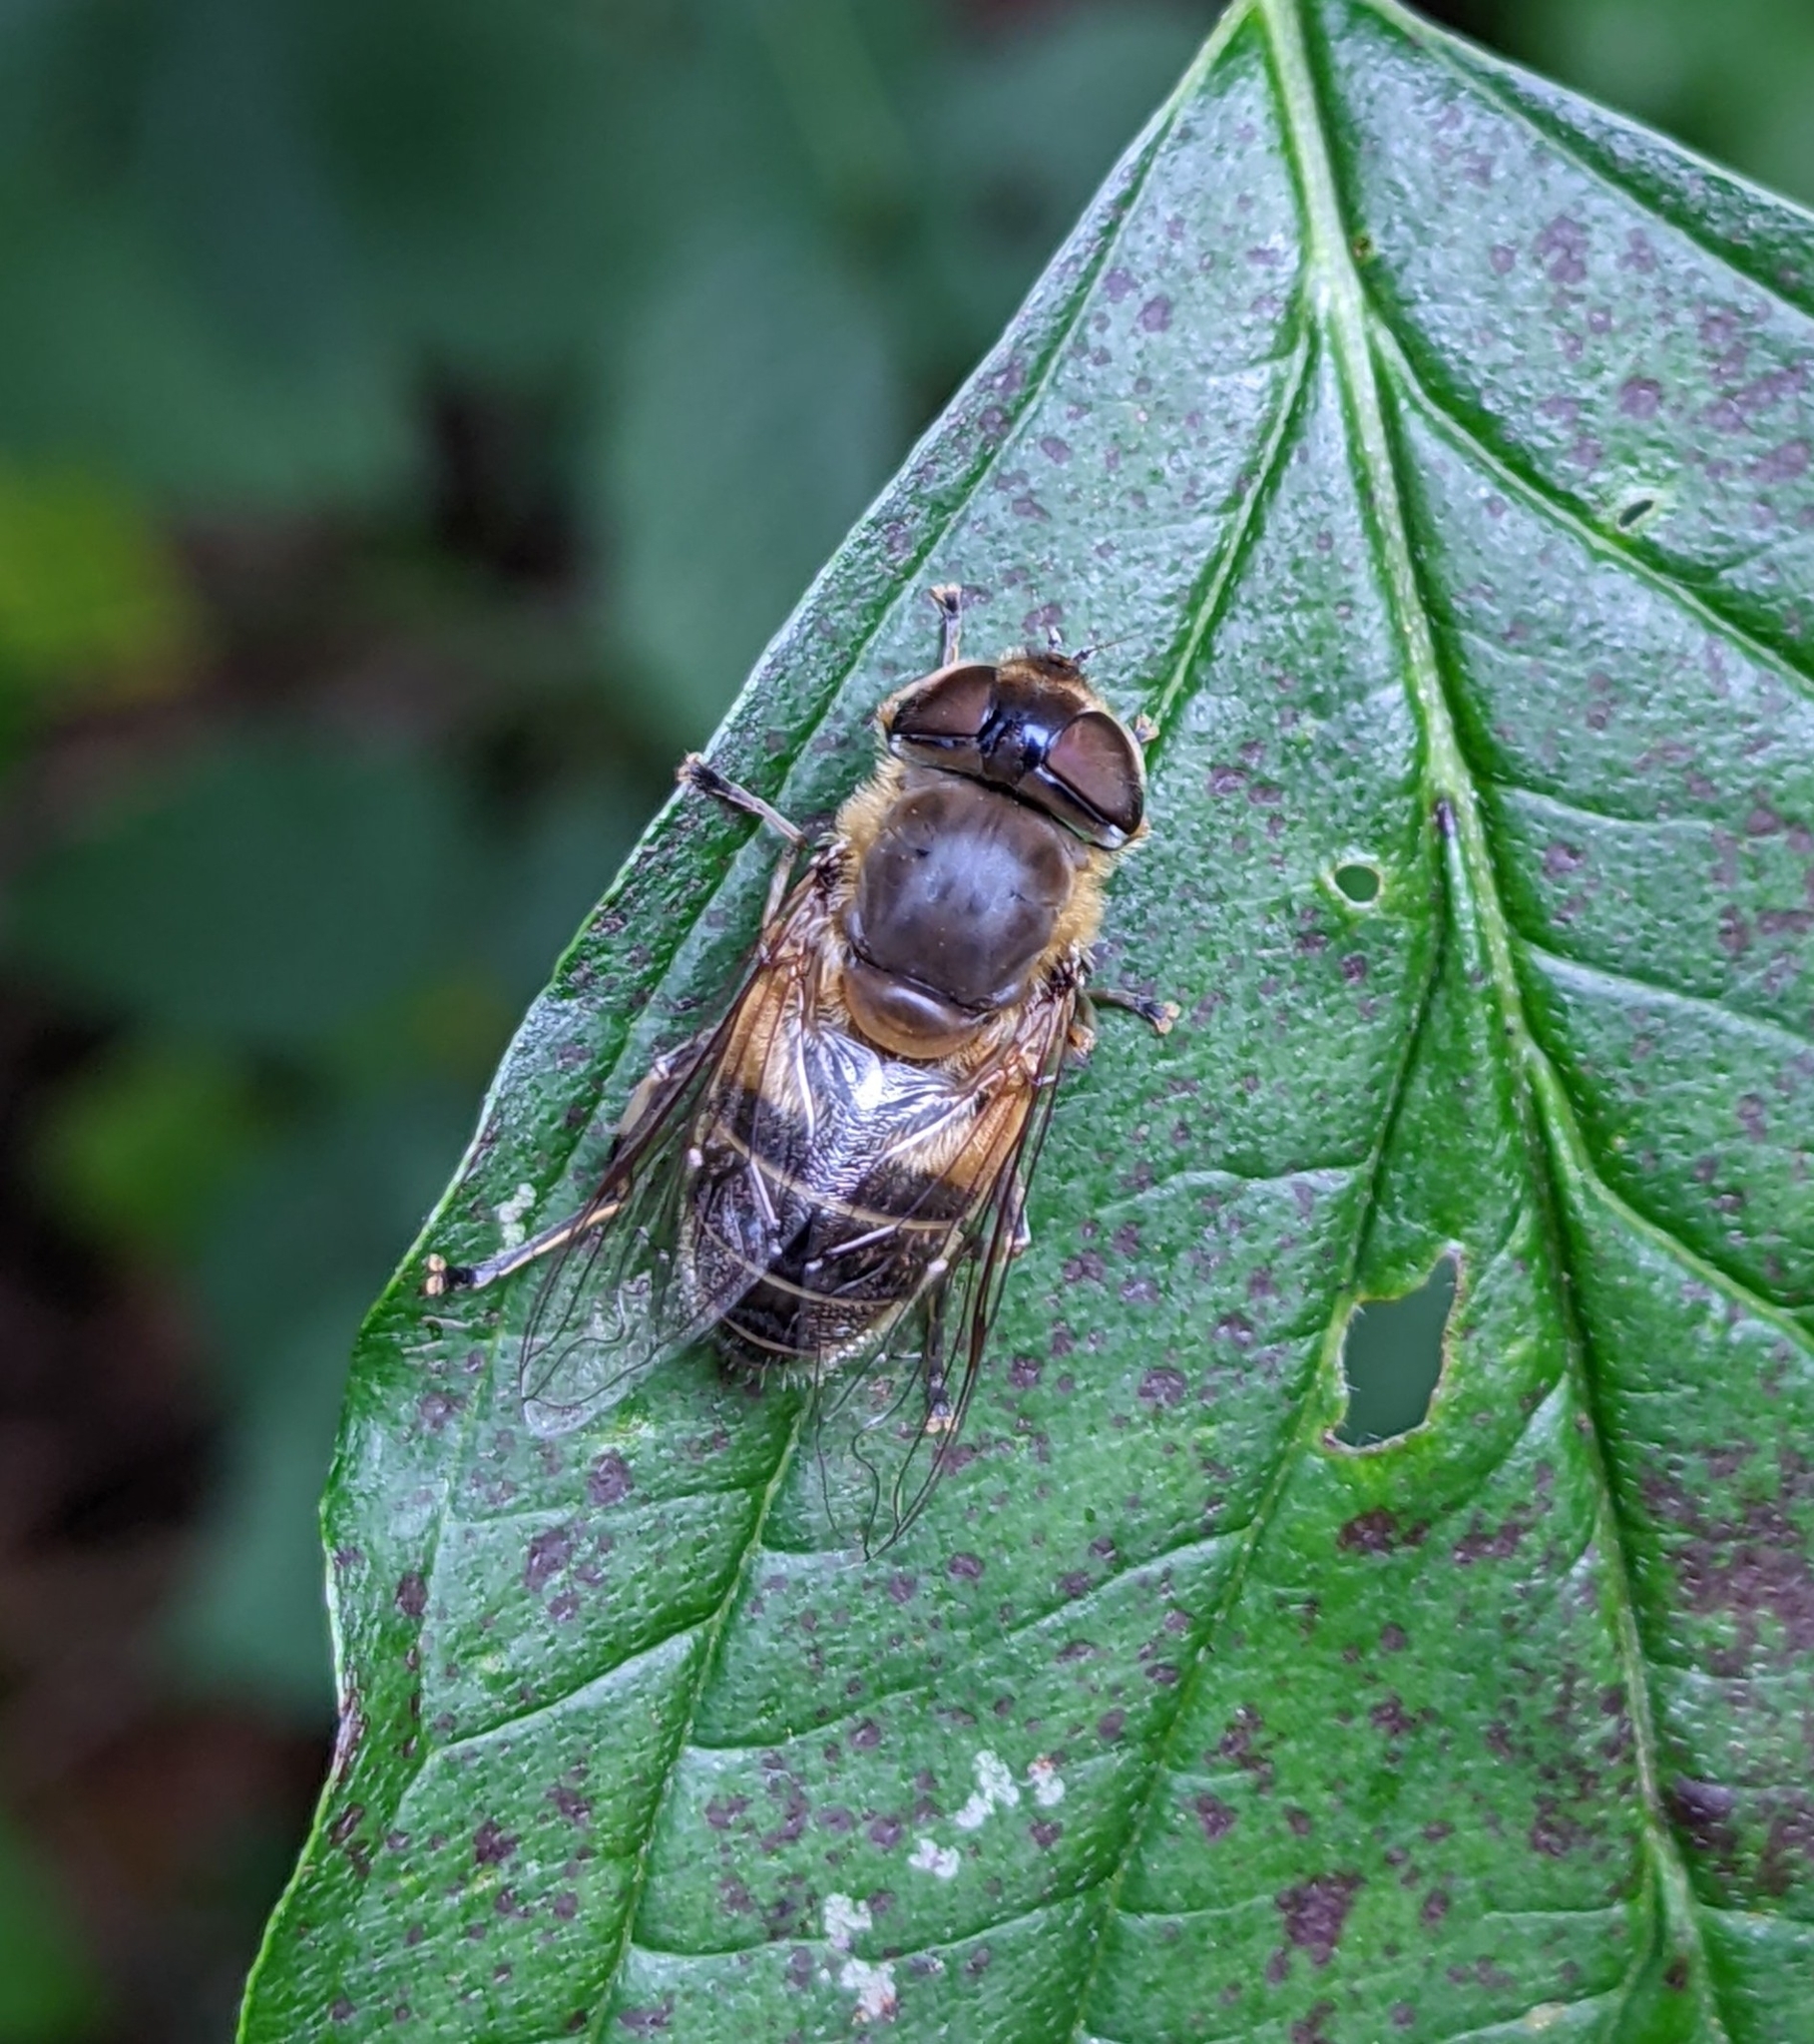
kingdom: Animalia
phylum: Arthropoda
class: Insecta
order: Diptera
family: Syrphidae
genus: Eristalis
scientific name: Eristalis pertinax
